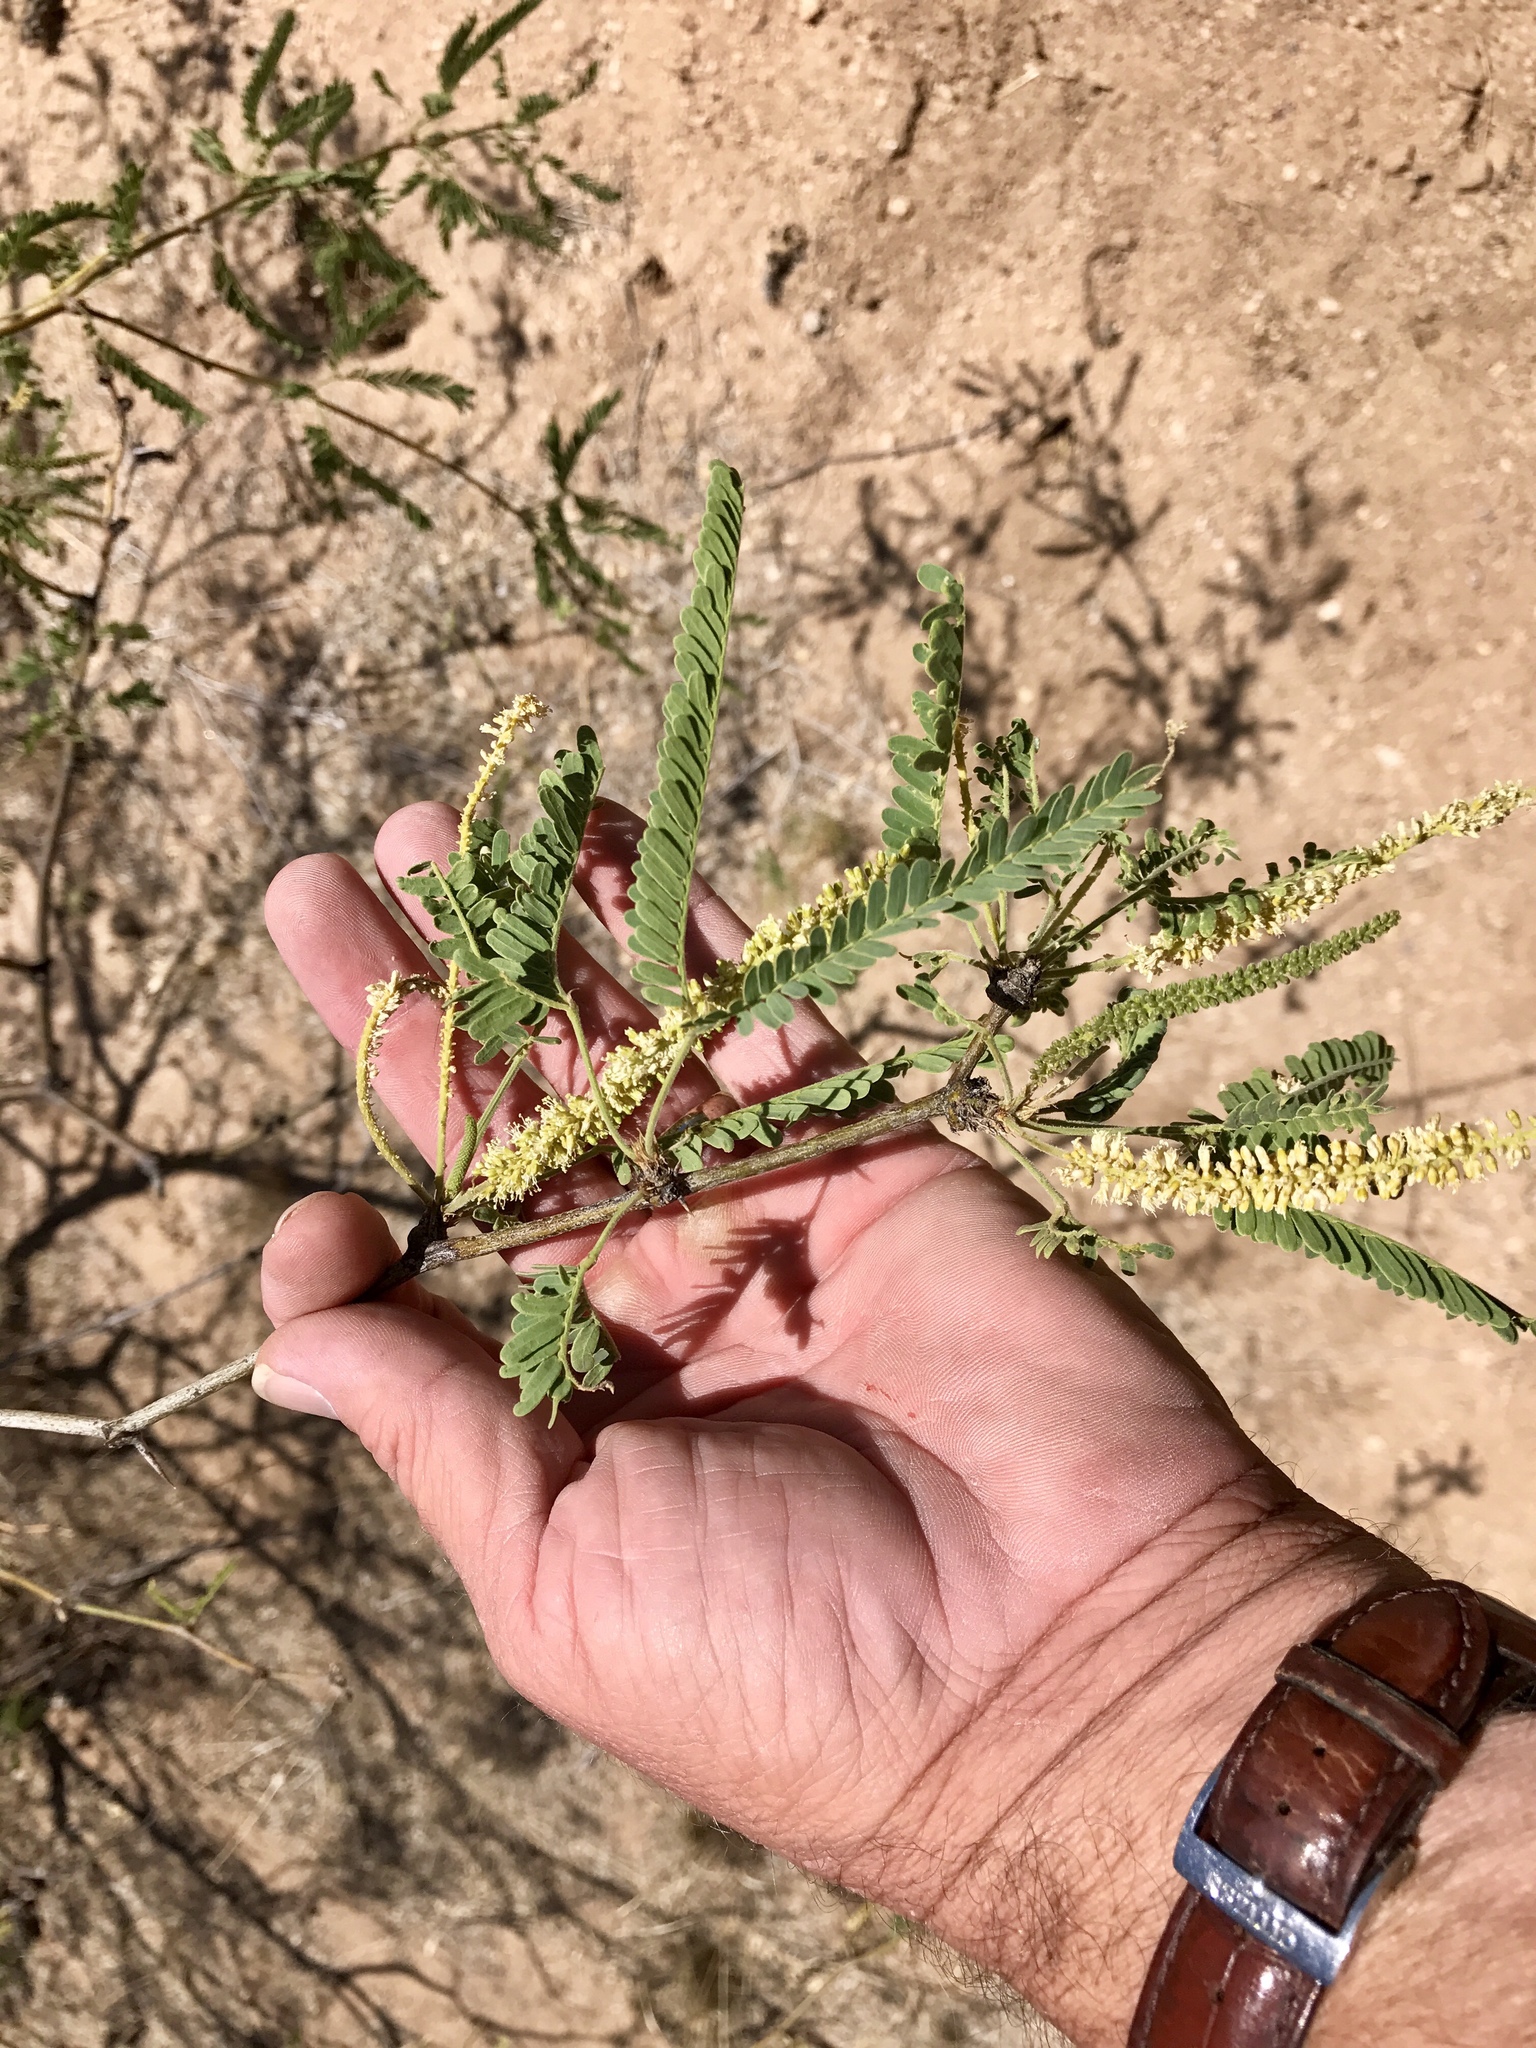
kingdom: Plantae
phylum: Tracheophyta
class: Magnoliopsida
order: Fabales
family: Fabaceae
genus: Prosopis
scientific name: Prosopis velutina
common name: Velvet mesquite
